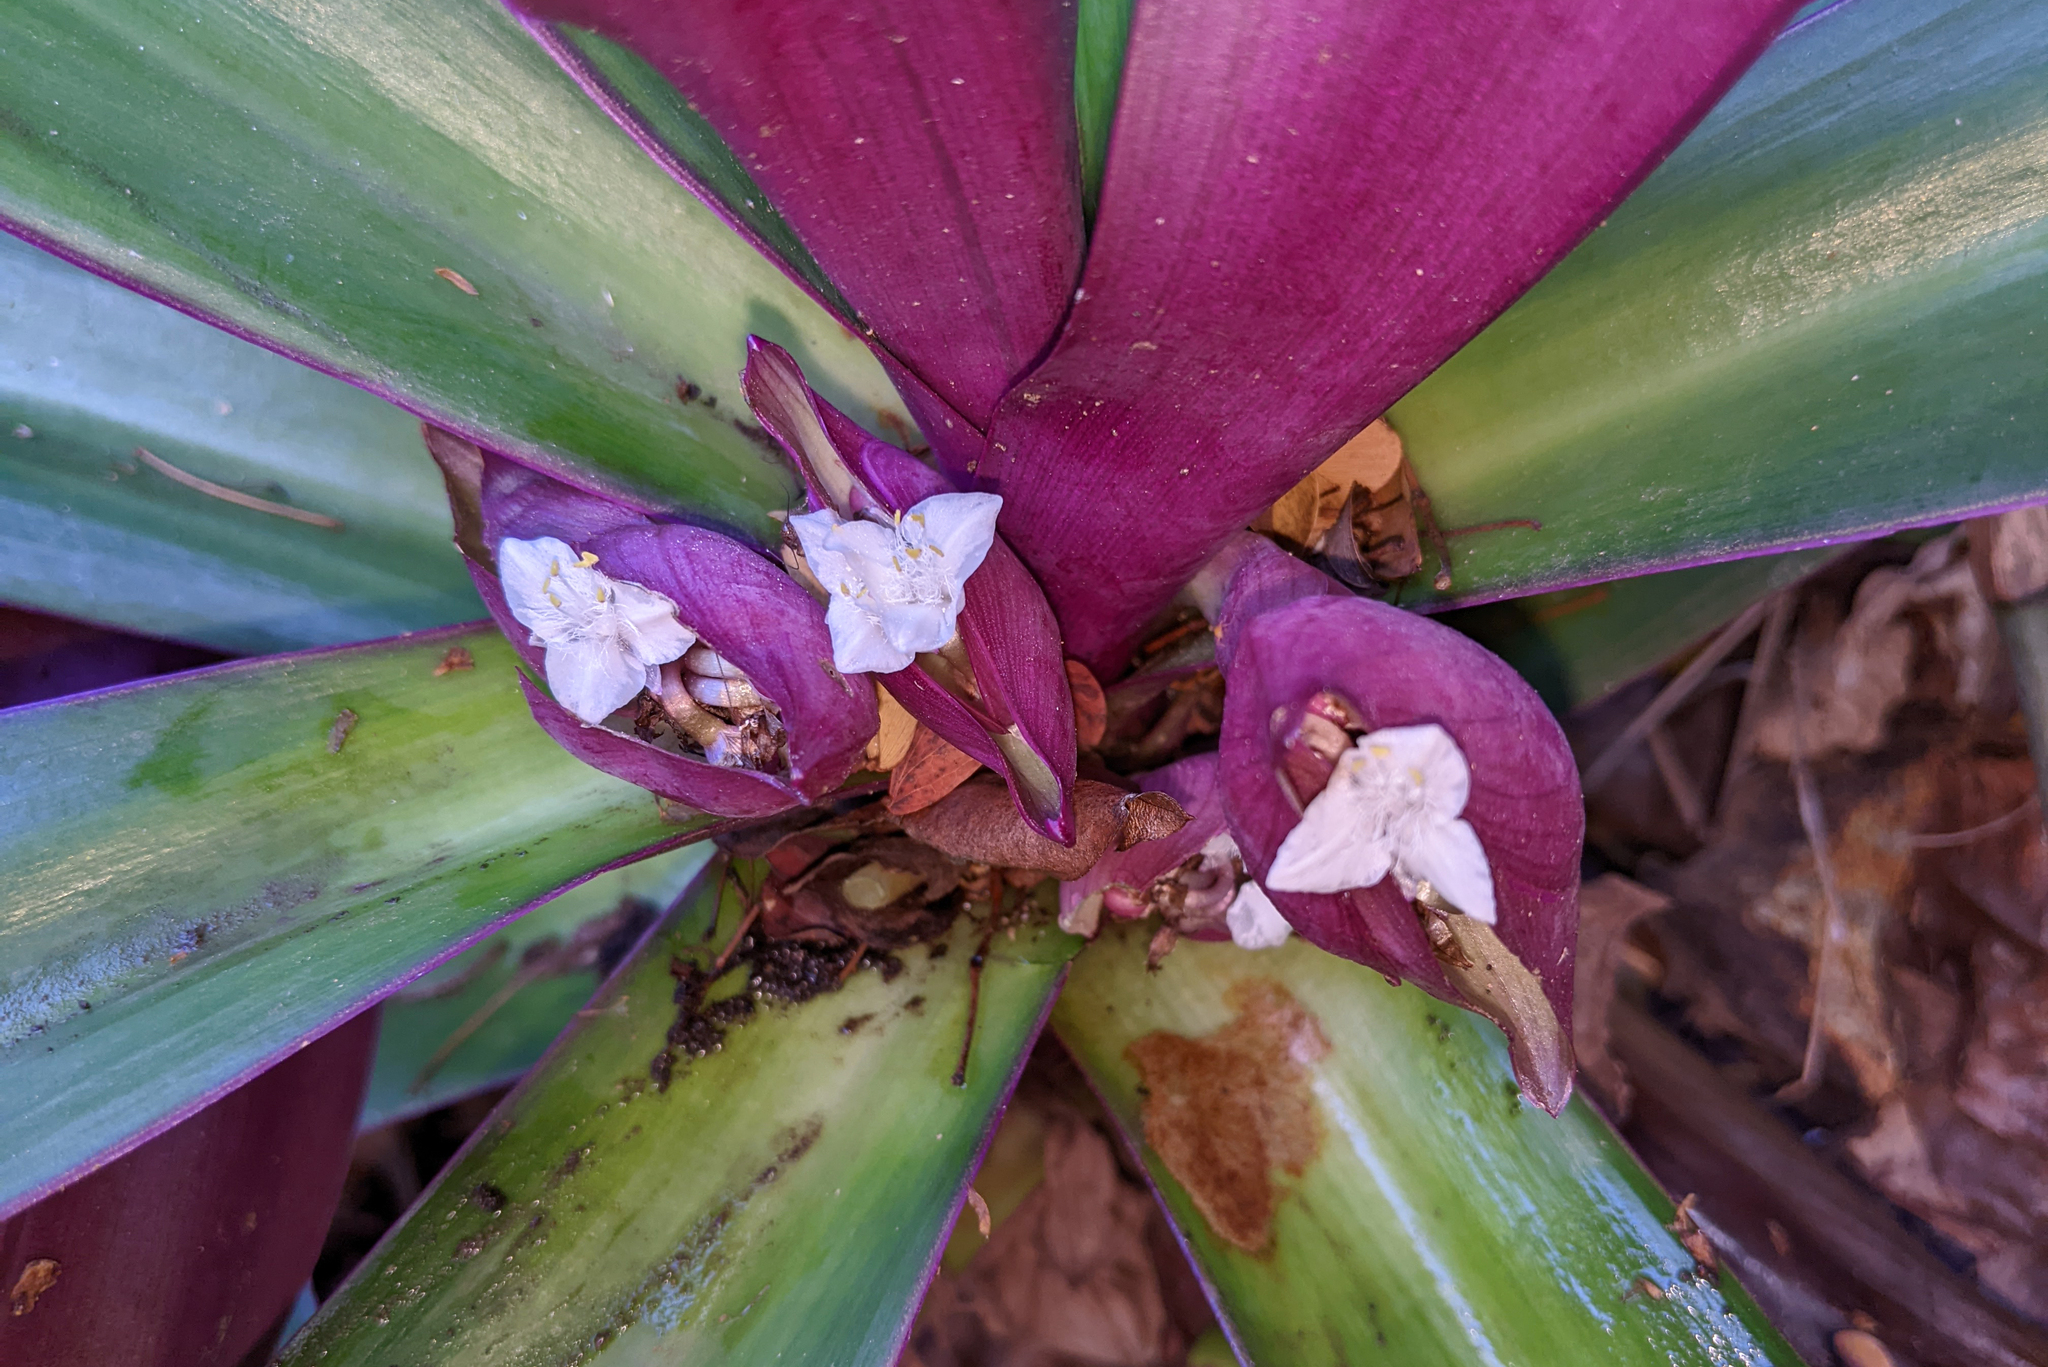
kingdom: Plantae
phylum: Tracheophyta
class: Liliopsida
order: Commelinales
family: Commelinaceae
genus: Tradescantia
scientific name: Tradescantia spathacea
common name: Boatlily
